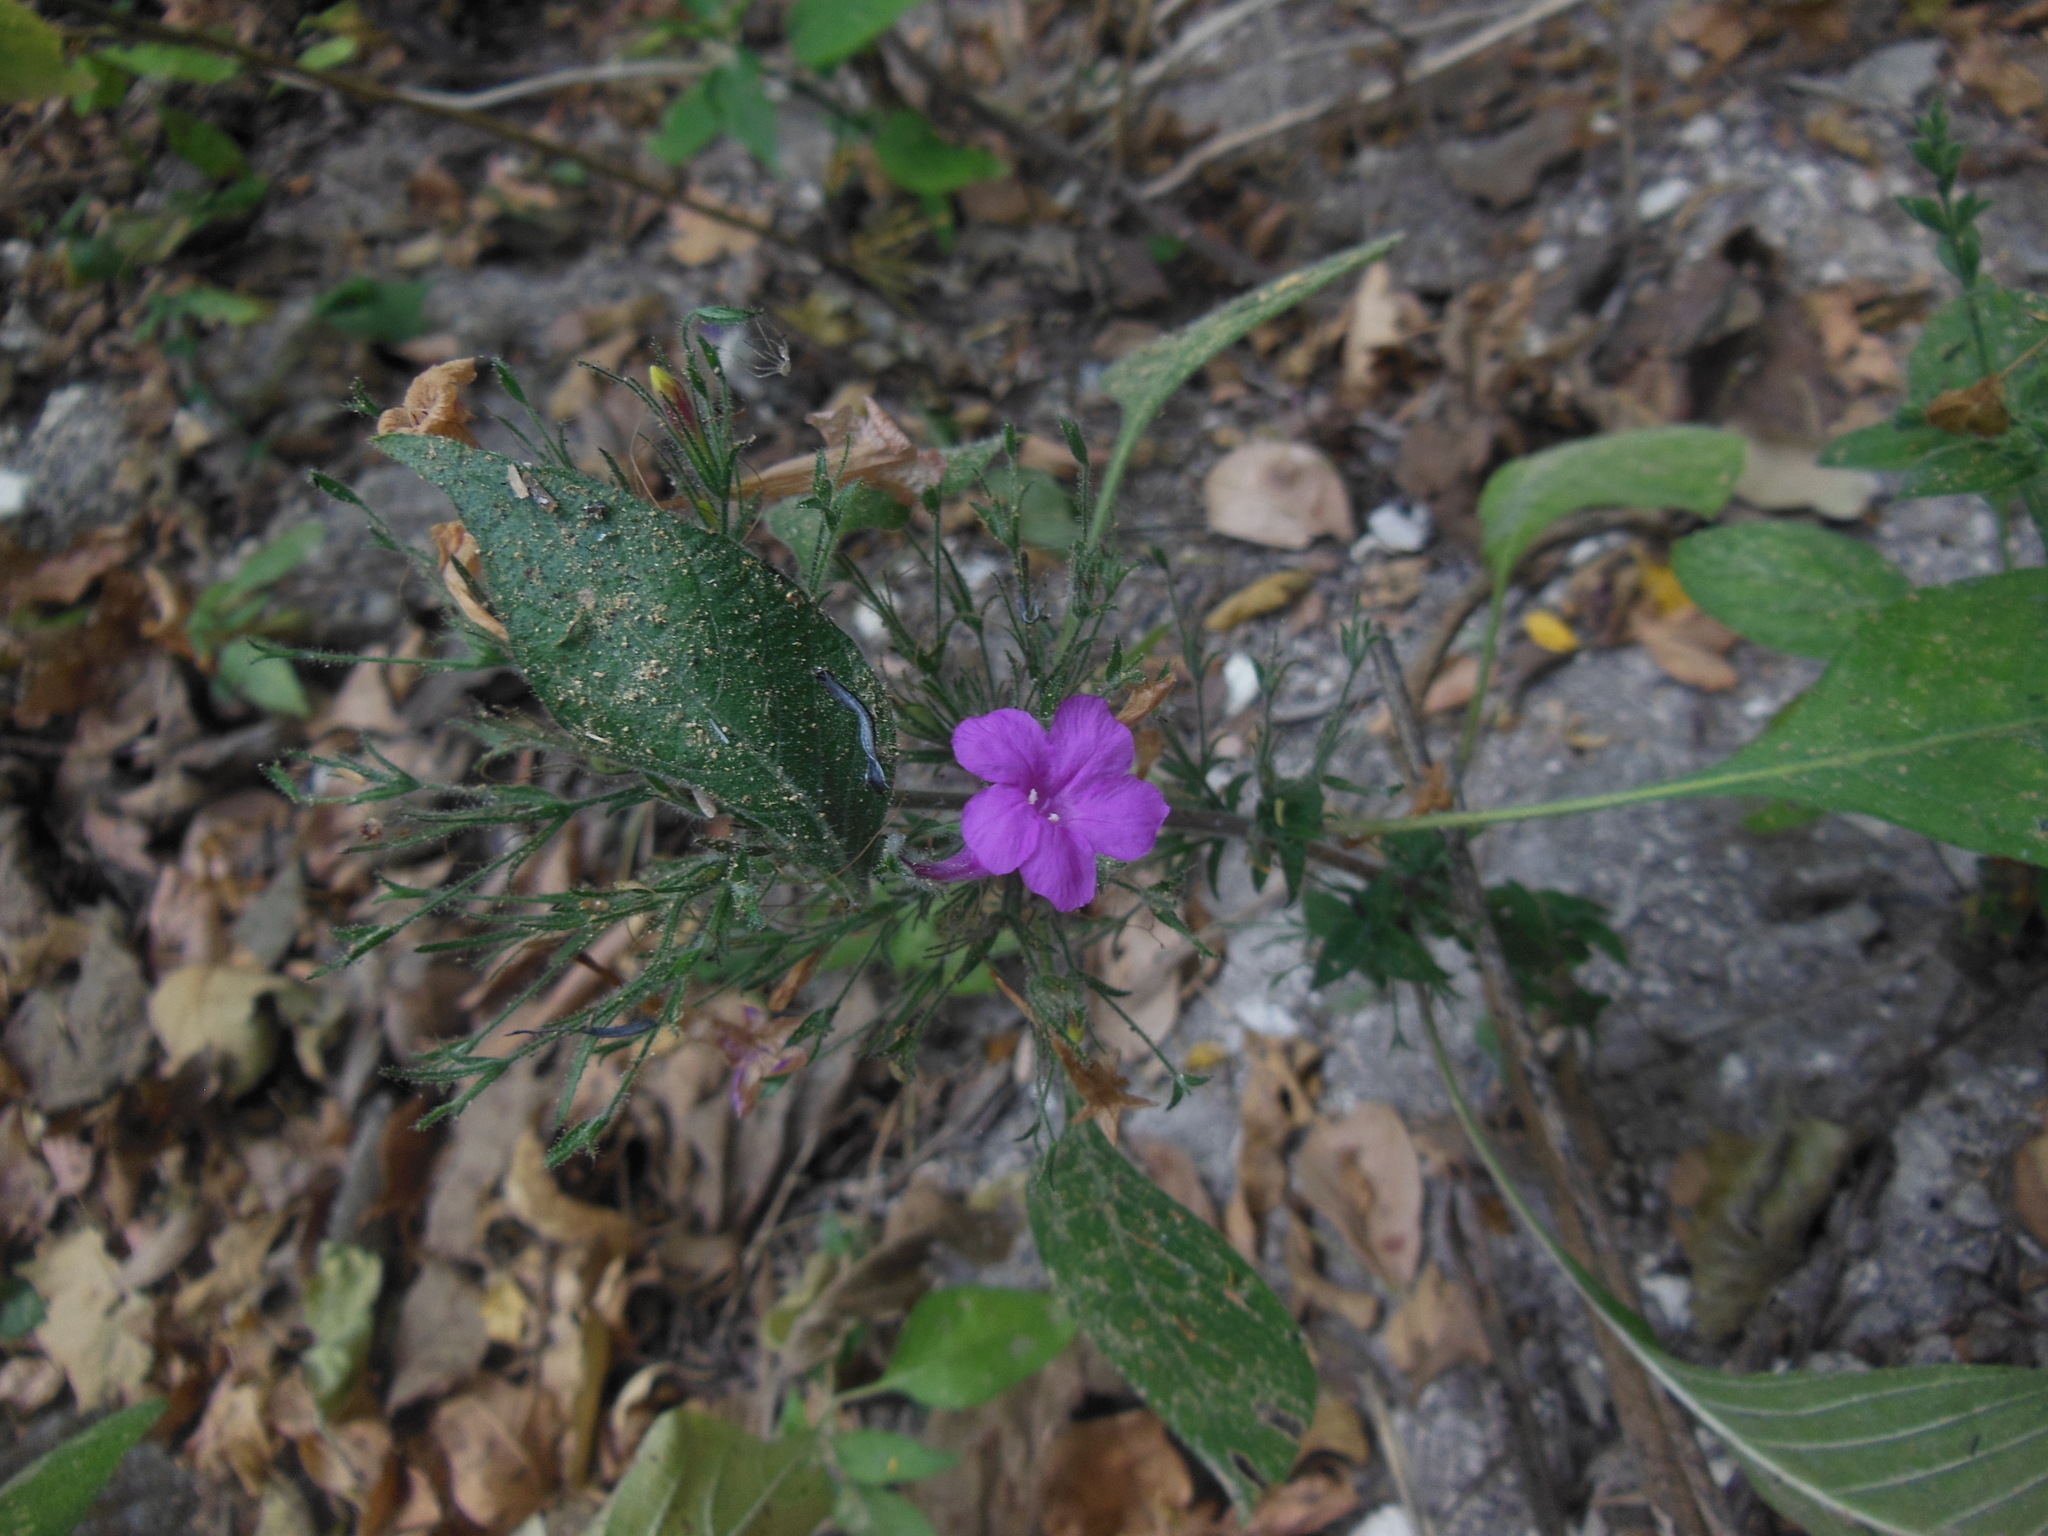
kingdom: Plantae
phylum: Tracheophyta
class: Magnoliopsida
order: Lamiales
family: Acanthaceae
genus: Ruellia
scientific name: Ruellia inundata
